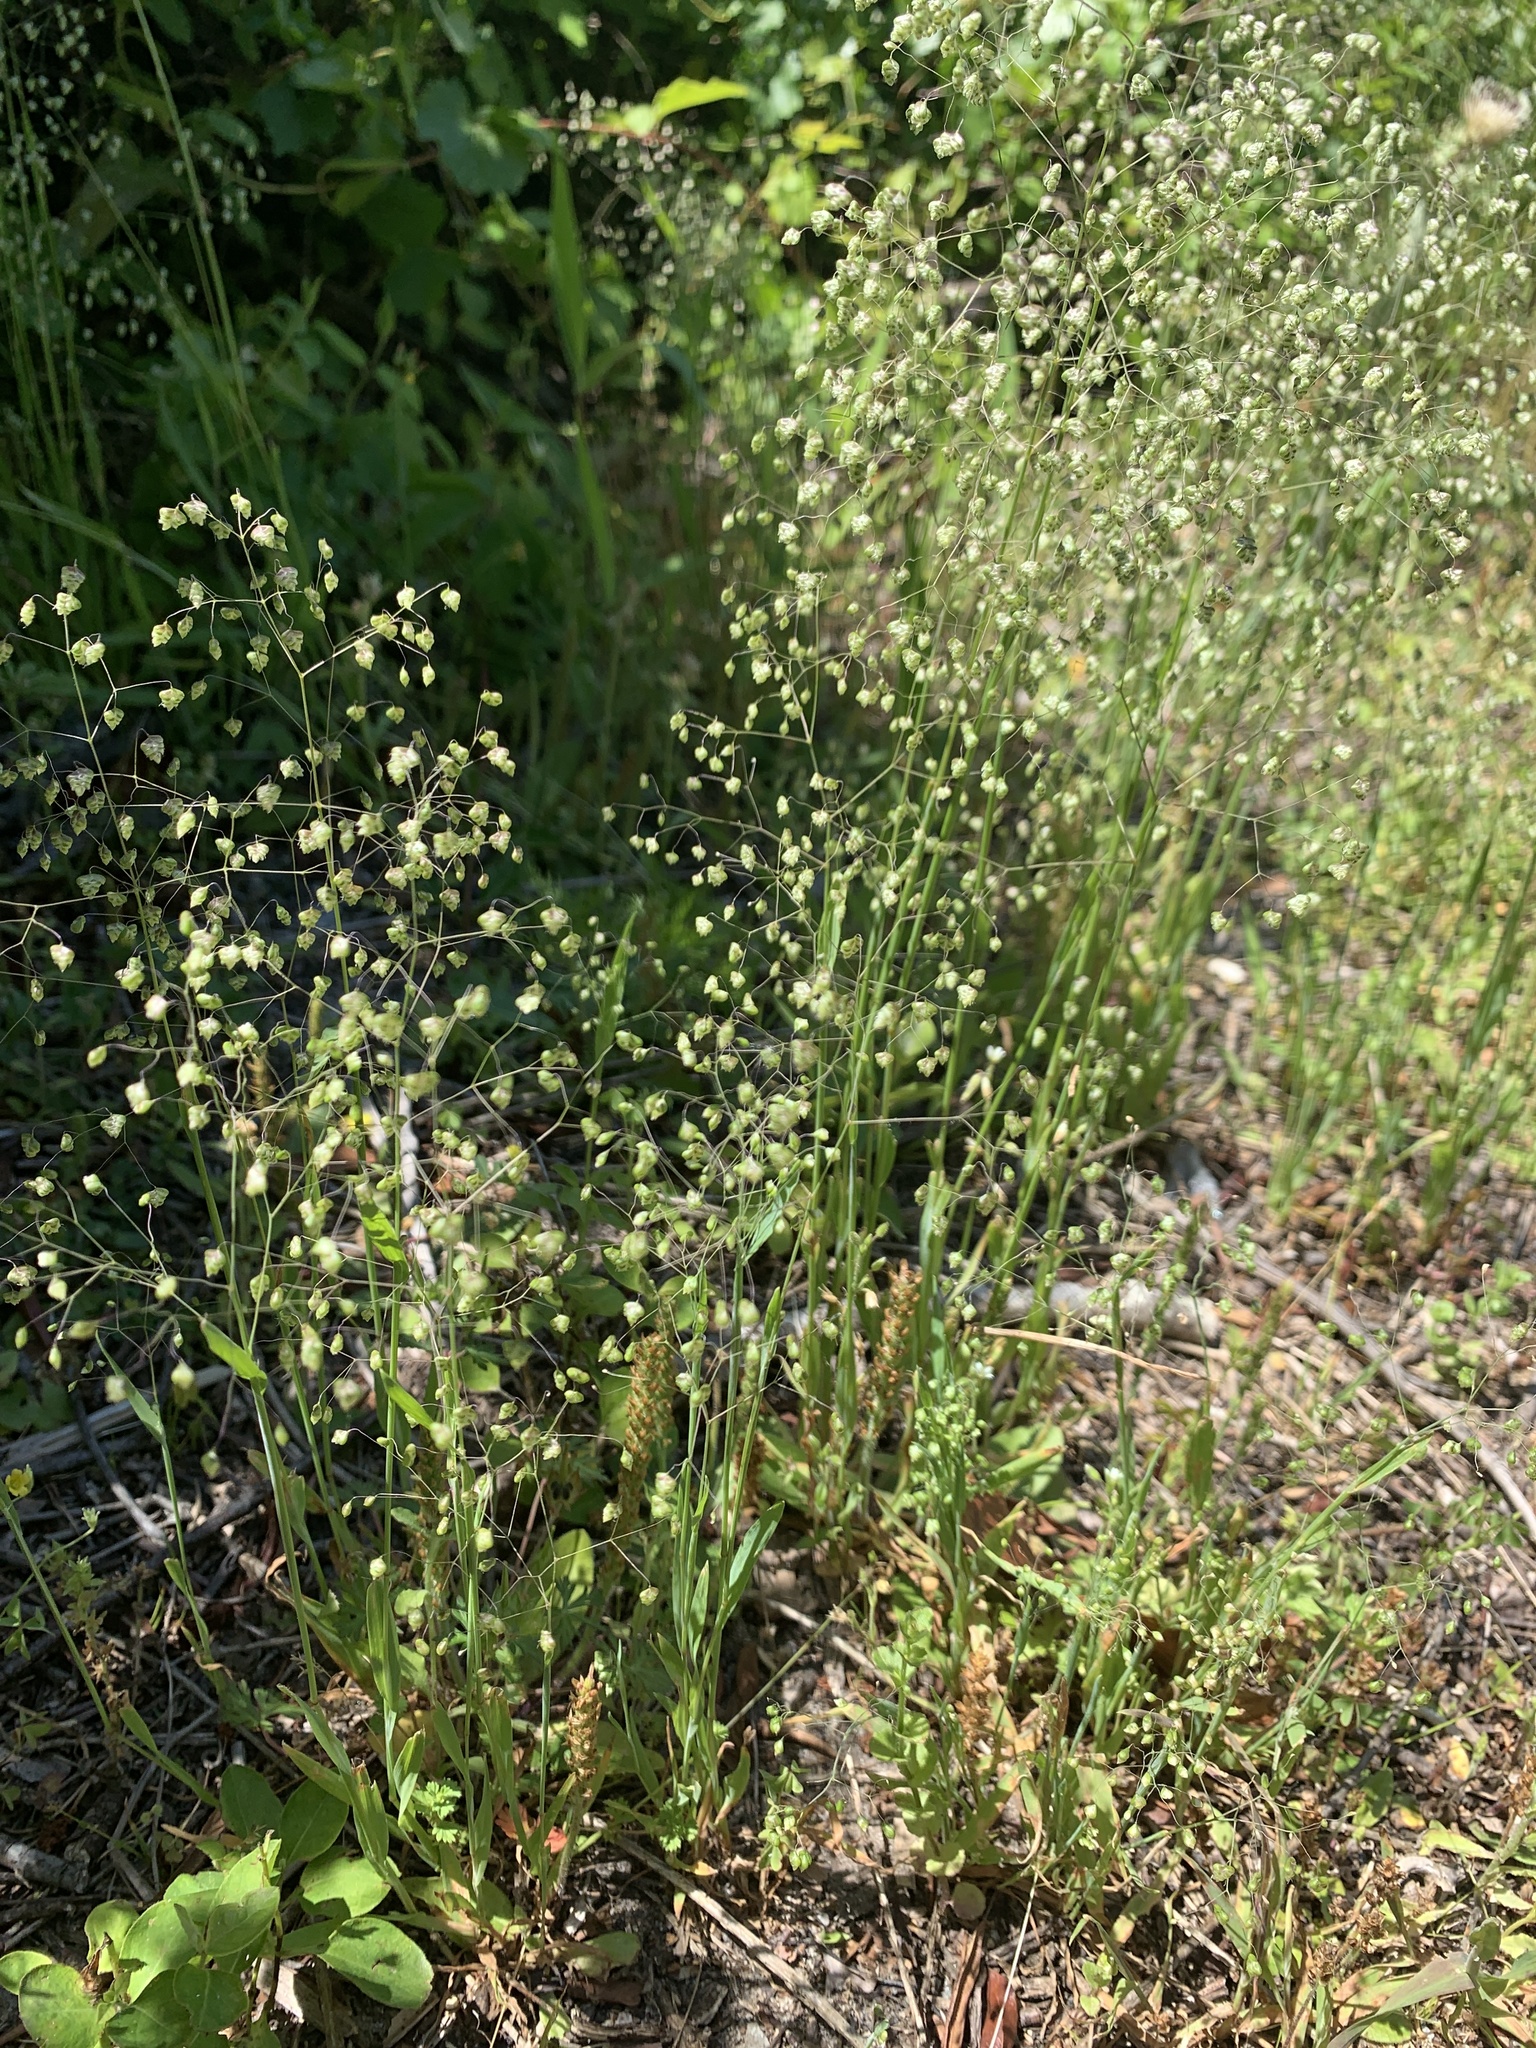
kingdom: Plantae
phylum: Tracheophyta
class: Liliopsida
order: Poales
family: Poaceae
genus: Briza
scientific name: Briza minor
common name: Lesser quaking-grass
